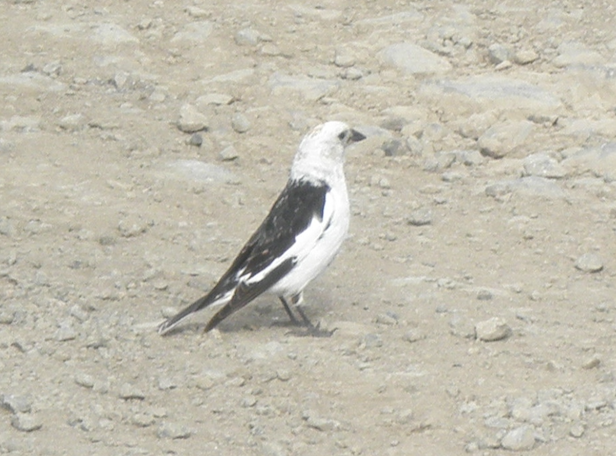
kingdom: Animalia
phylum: Chordata
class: Aves
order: Passeriformes
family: Calcariidae
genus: Plectrophenax
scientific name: Plectrophenax nivalis
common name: Snow bunting
